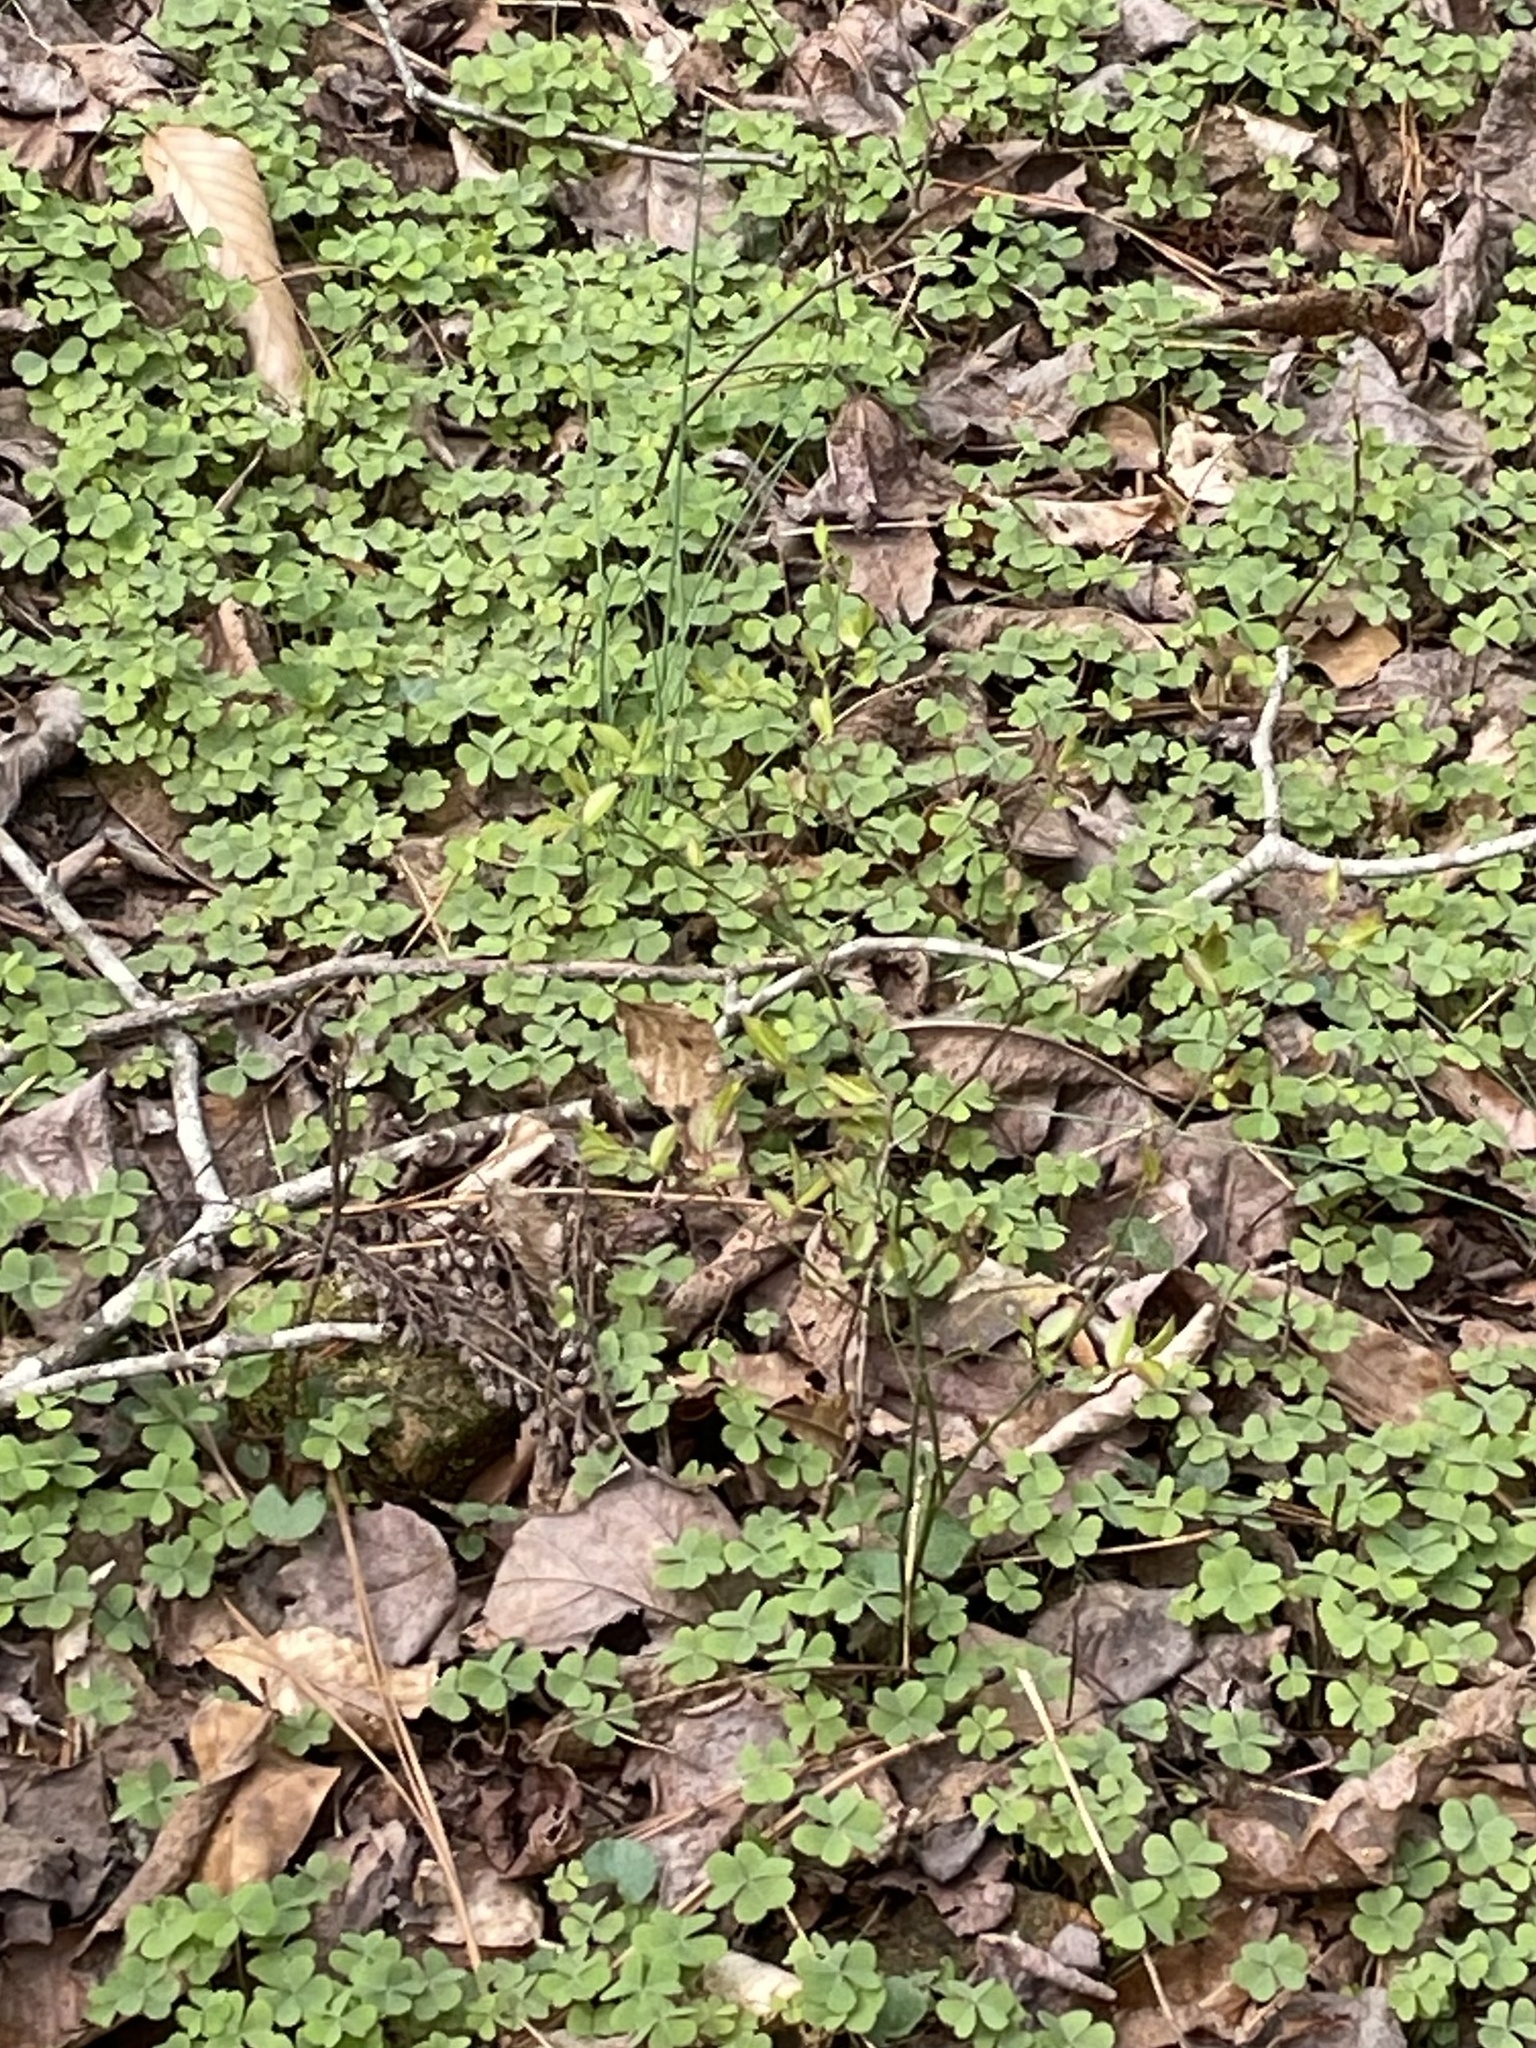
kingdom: Plantae
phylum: Tracheophyta
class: Magnoliopsida
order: Oxalidales
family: Oxalidaceae
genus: Oxalis
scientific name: Oxalis violacea
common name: Violet wood-sorrel
